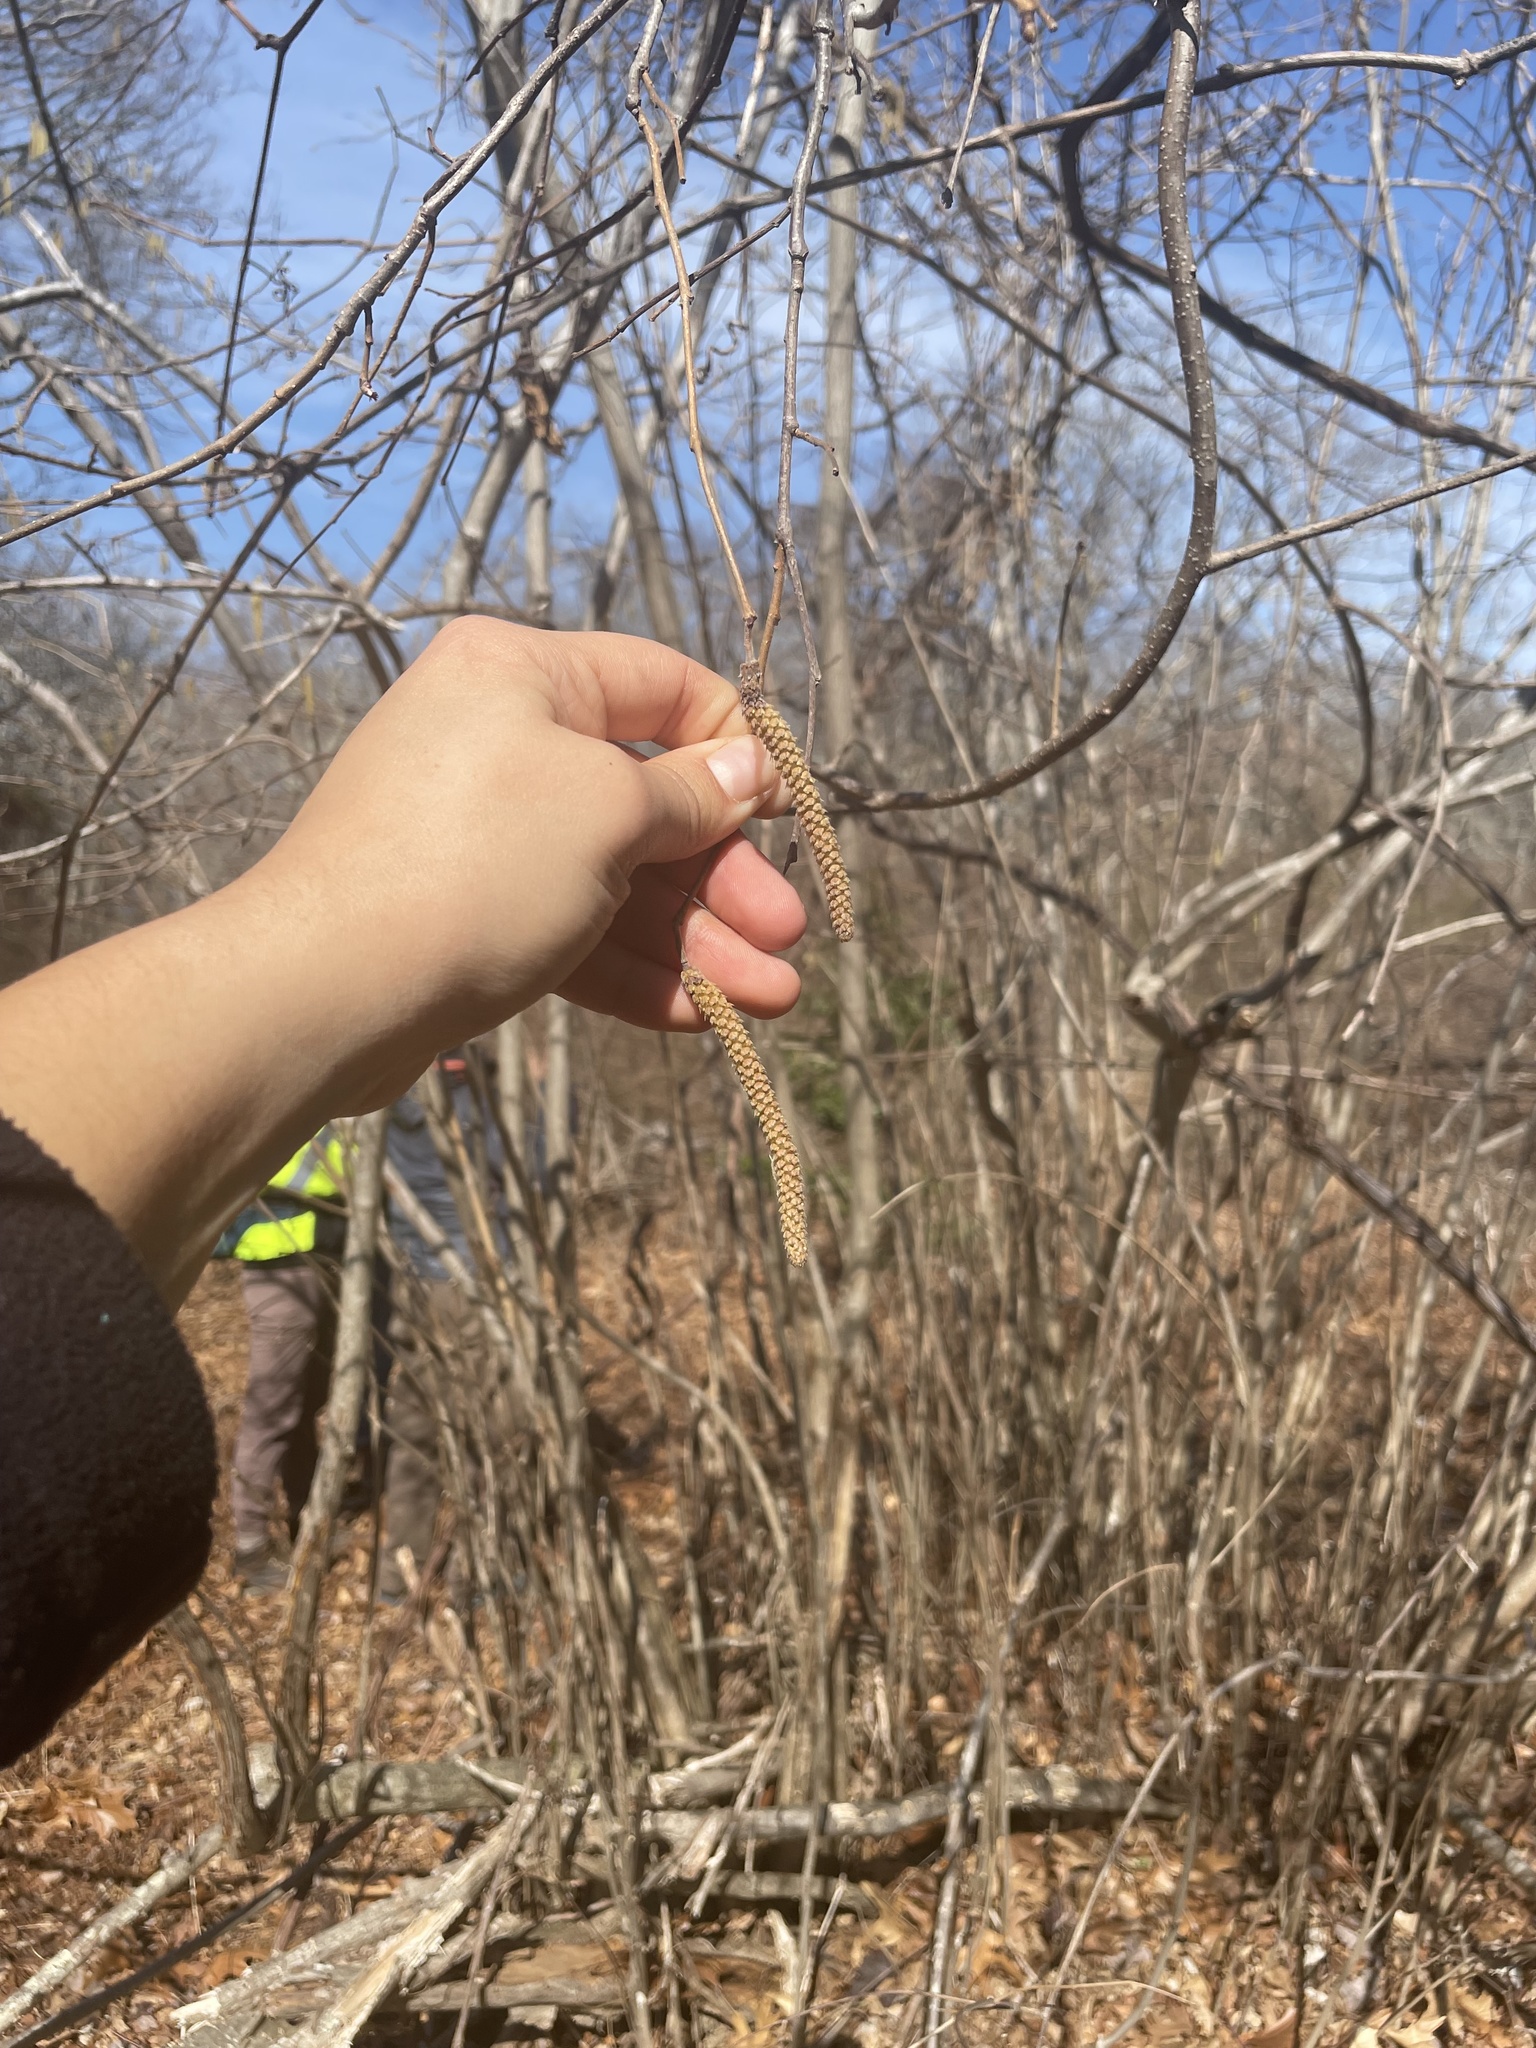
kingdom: Plantae
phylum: Tracheophyta
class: Magnoliopsida
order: Fagales
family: Betulaceae
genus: Corylus
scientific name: Corylus americana
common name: American hazel
